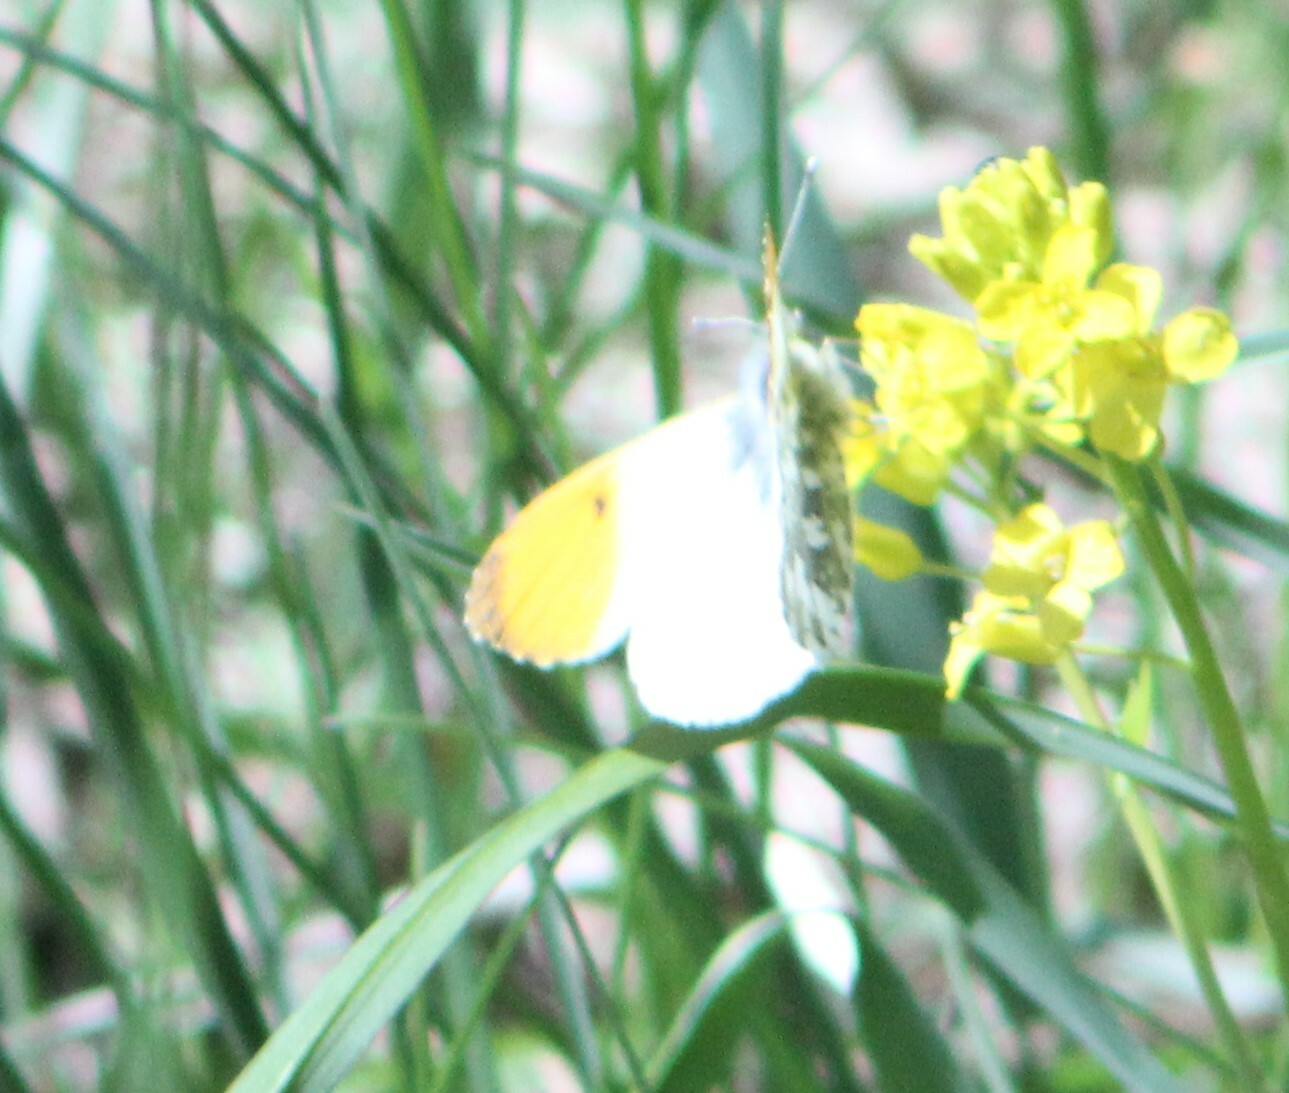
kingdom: Animalia
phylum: Arthropoda
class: Insecta
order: Lepidoptera
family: Pieridae
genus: Anthocharis
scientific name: Anthocharis cardamines
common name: Orange-tip
